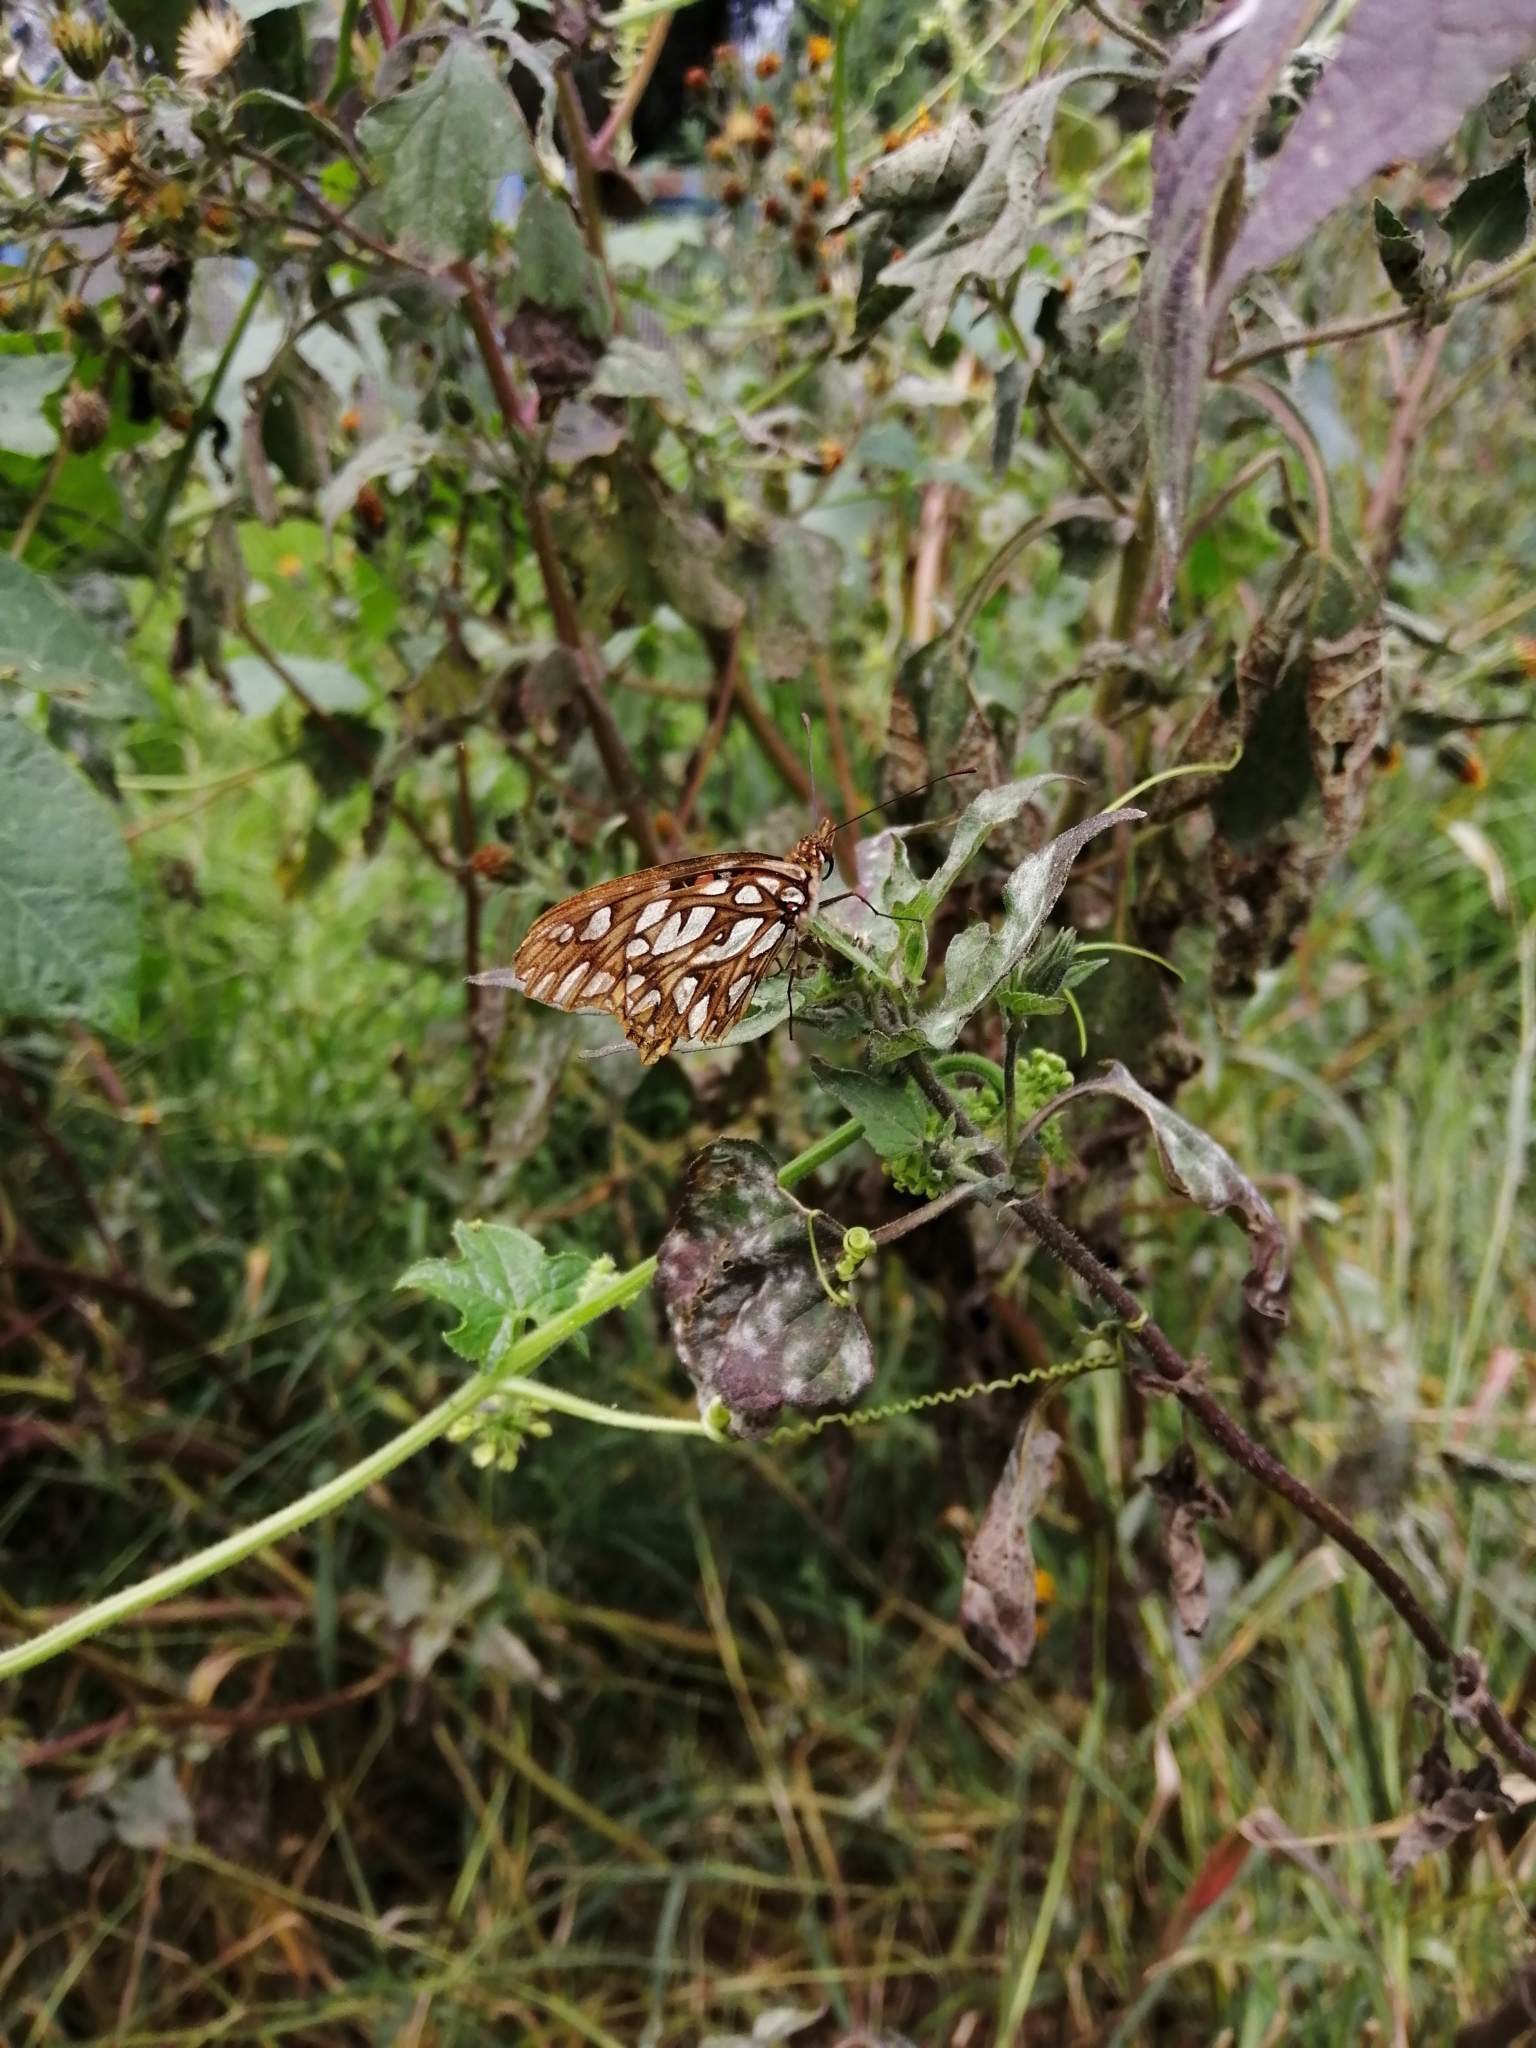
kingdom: Animalia
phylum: Arthropoda
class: Insecta
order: Lepidoptera
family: Nymphalidae
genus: Dione
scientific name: Dione moneta
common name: Mexican silverspot
